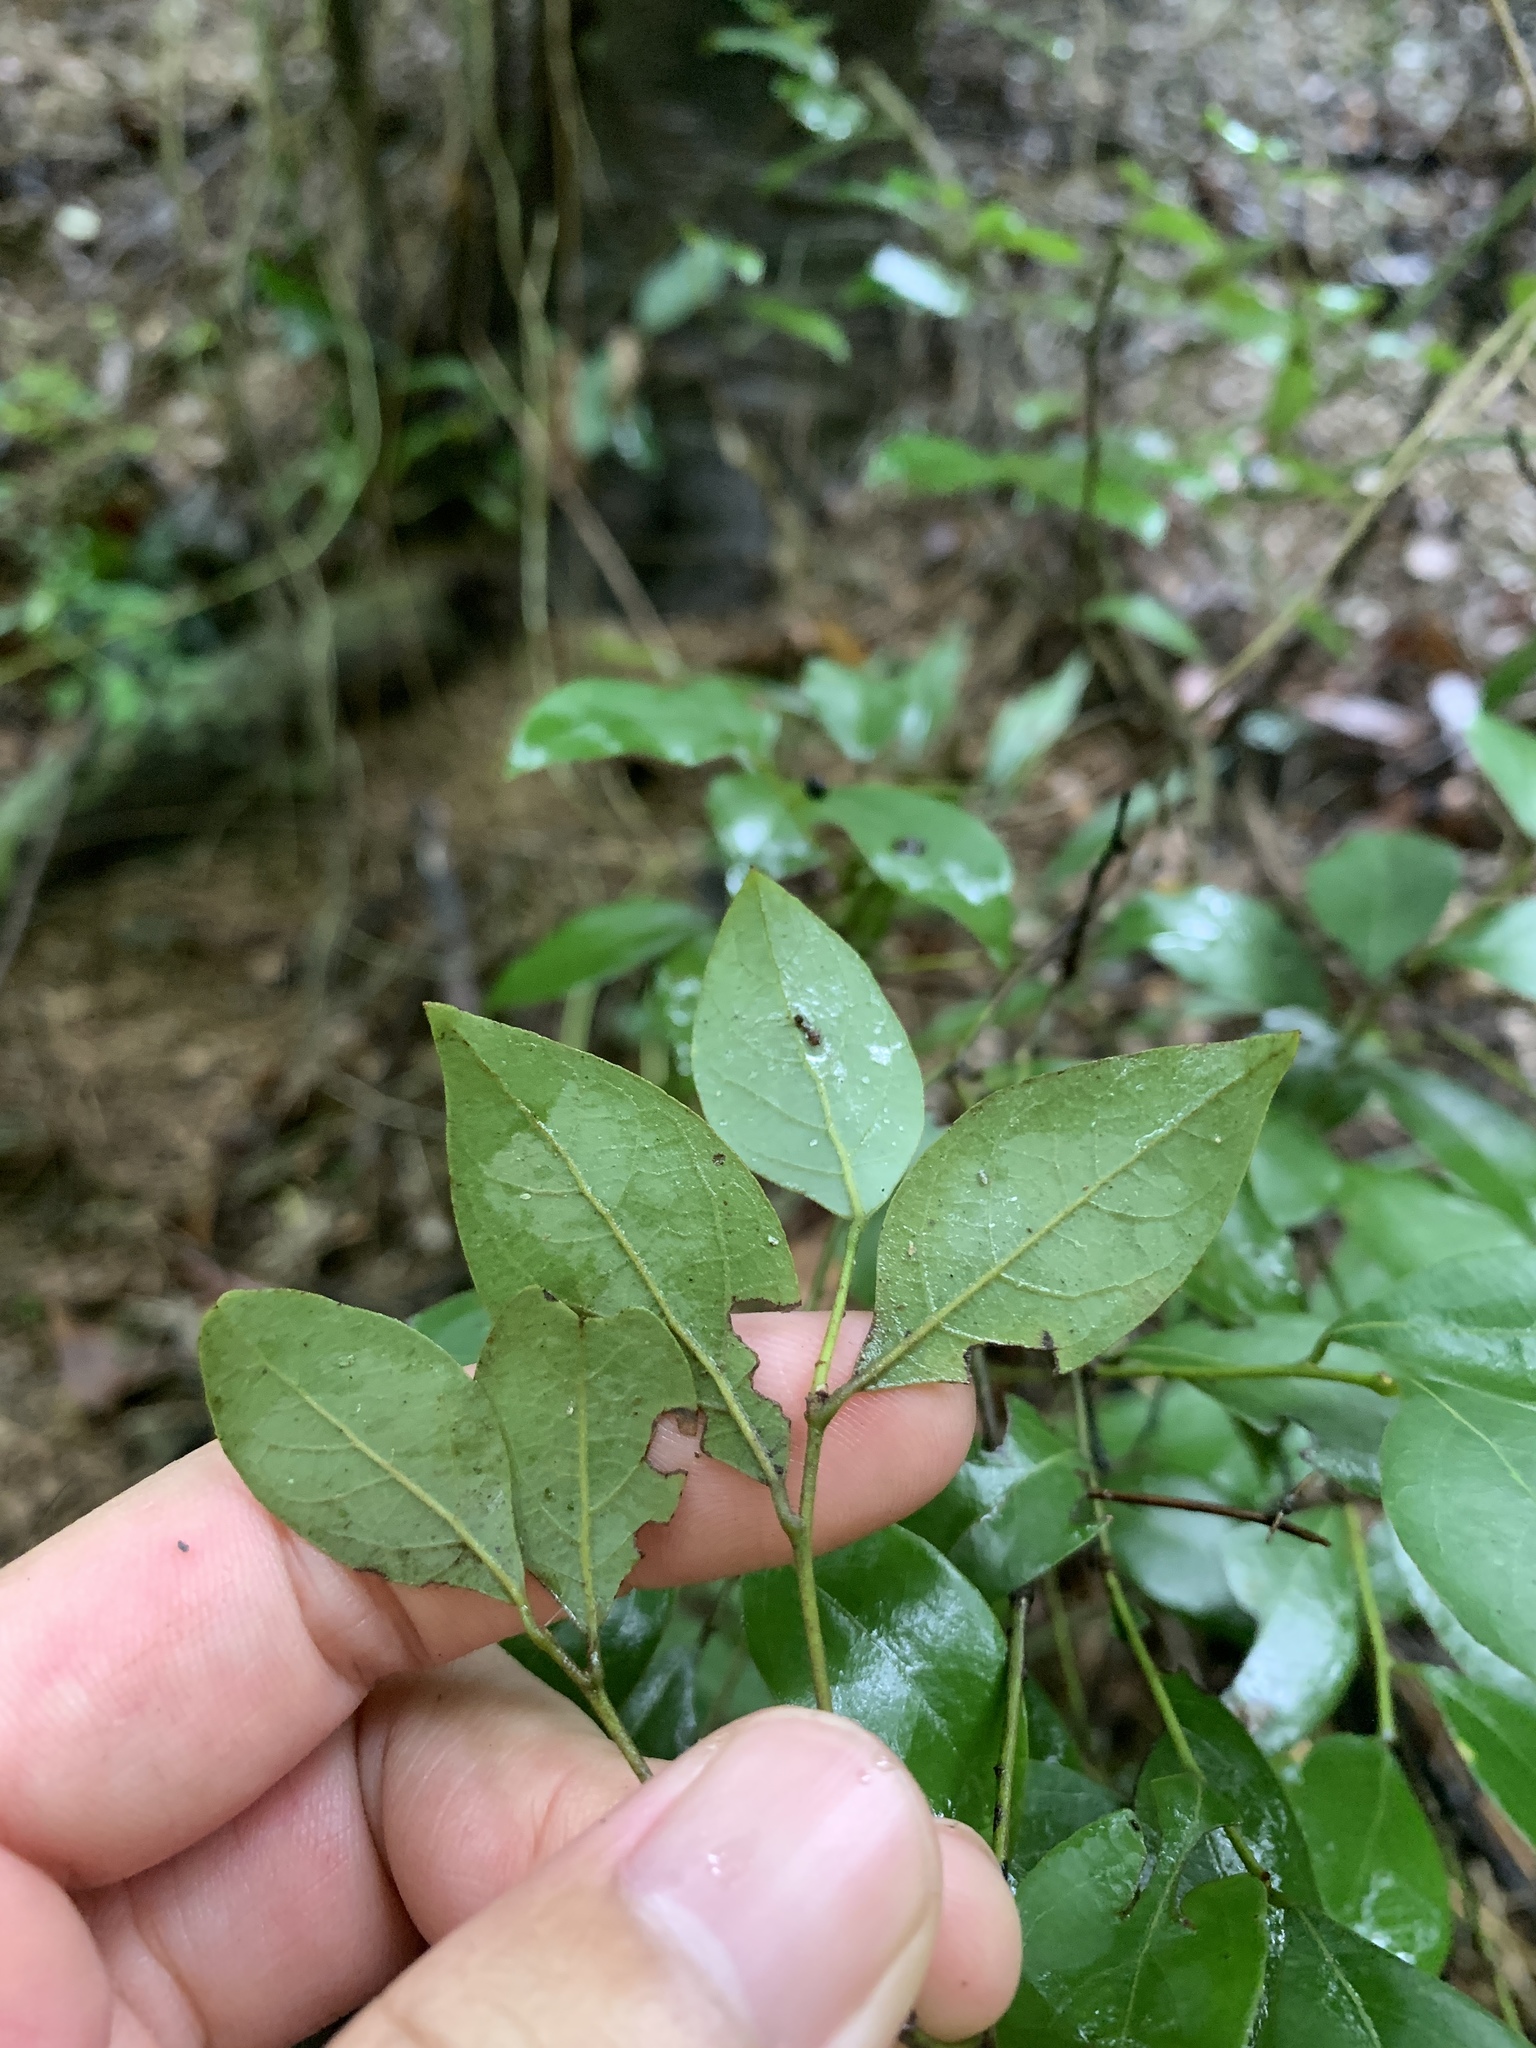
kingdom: Plantae
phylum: Tracheophyta
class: Magnoliopsida
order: Laurales
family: Lauraceae
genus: Lindera
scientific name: Lindera akoensis
